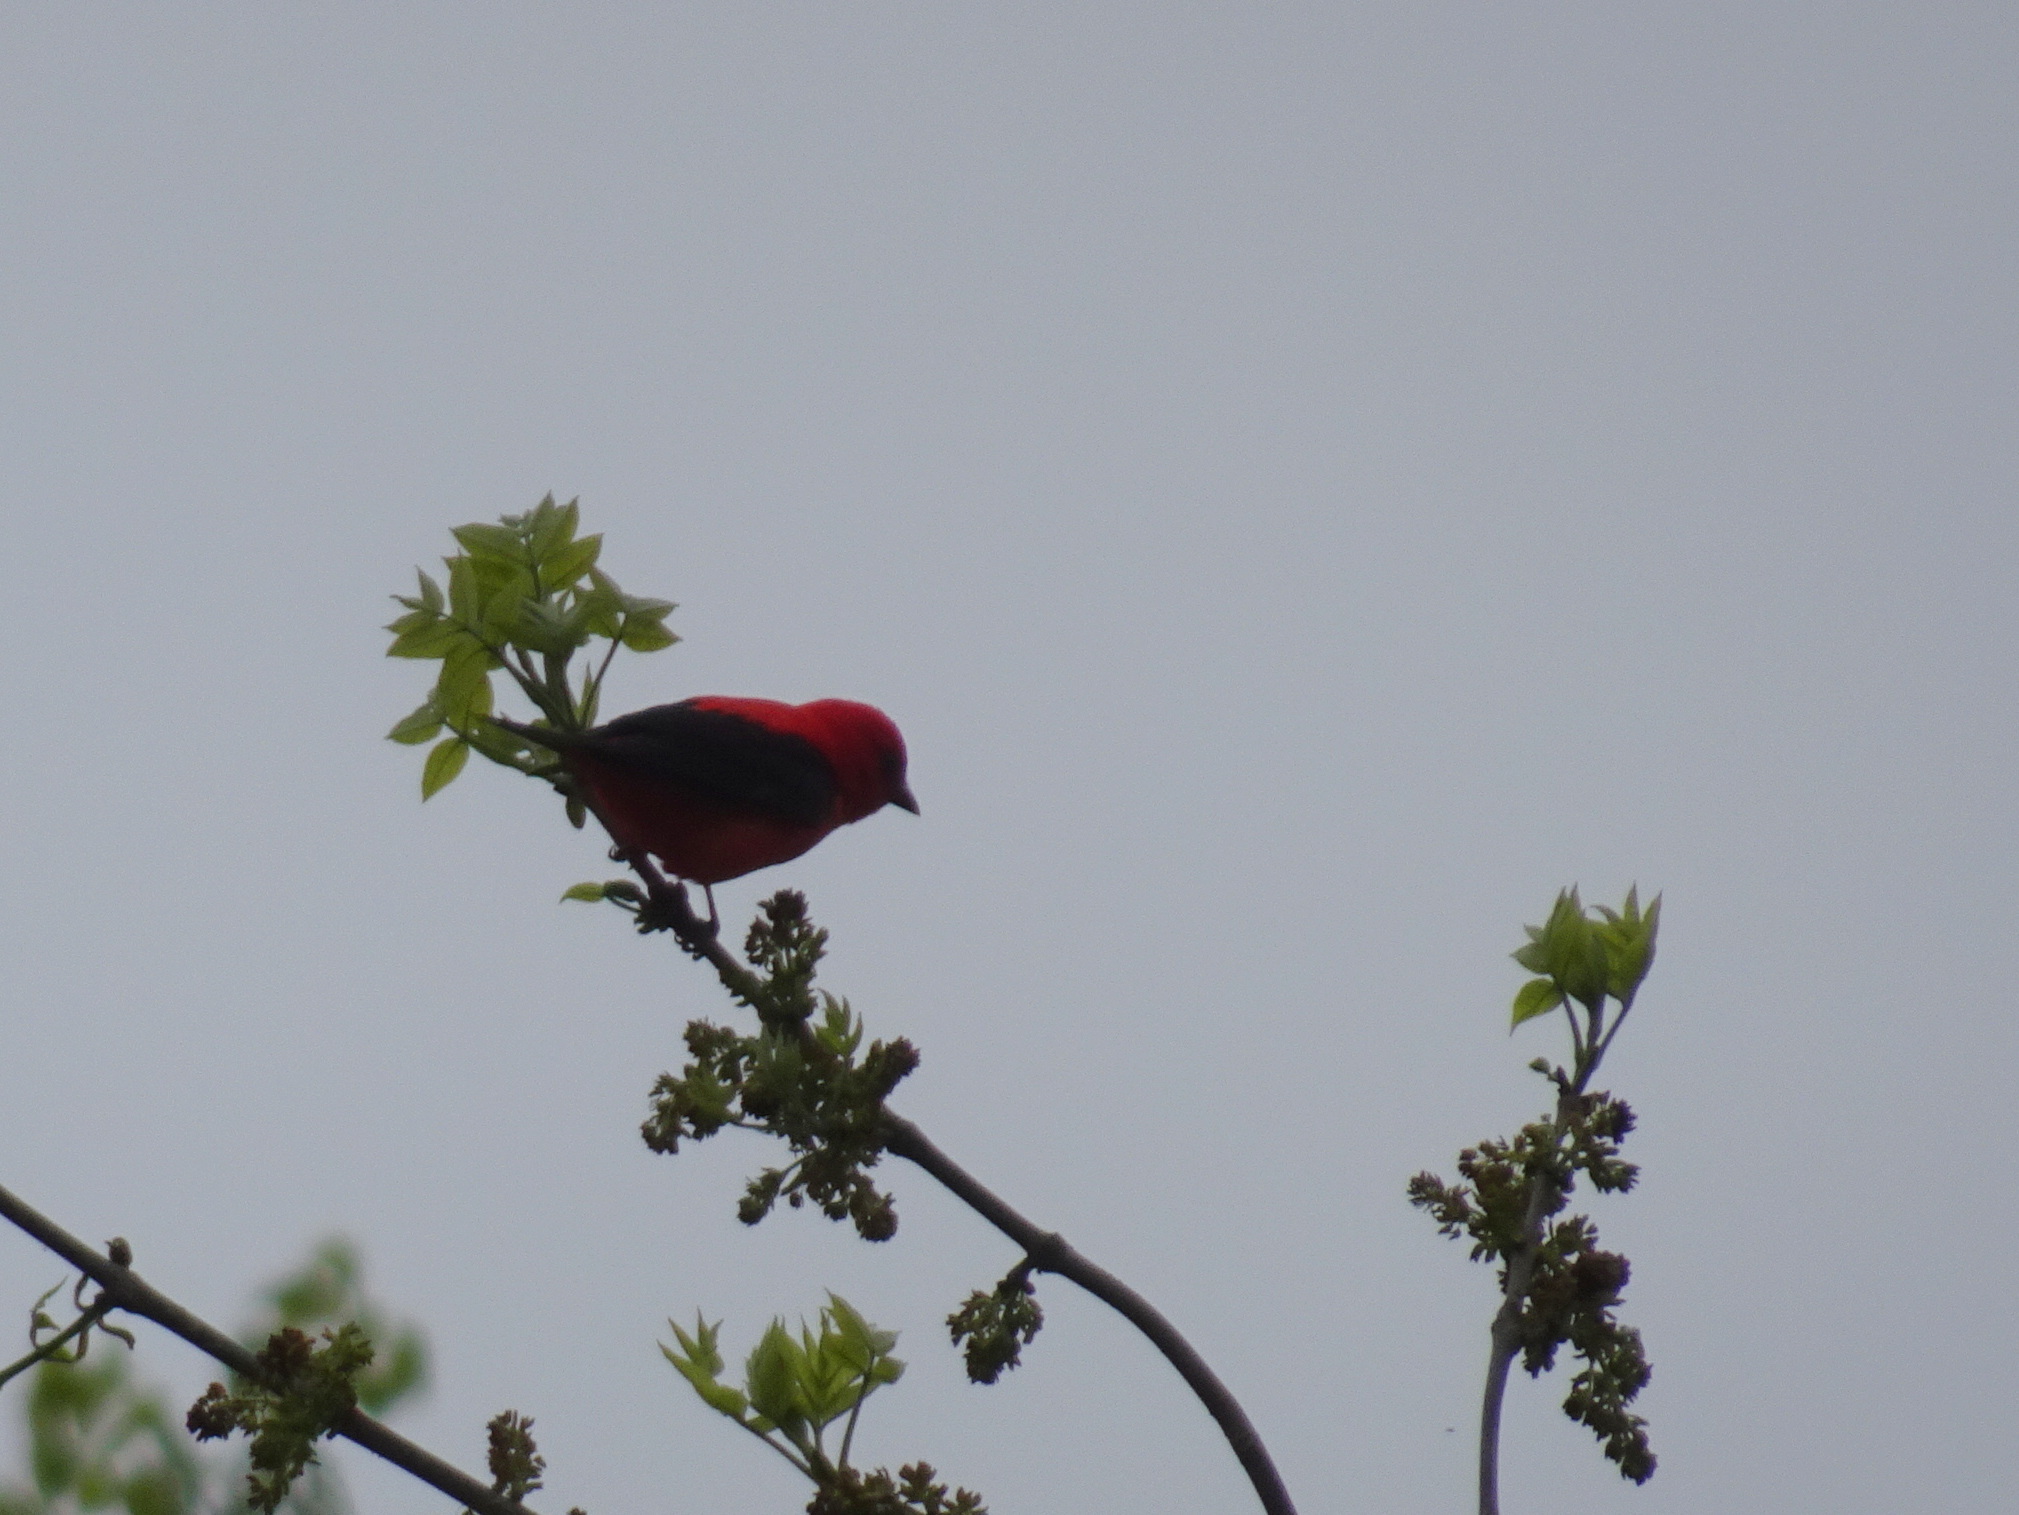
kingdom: Animalia
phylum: Chordata
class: Aves
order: Passeriformes
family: Cardinalidae
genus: Piranga
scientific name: Piranga olivacea
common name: Scarlet tanager
